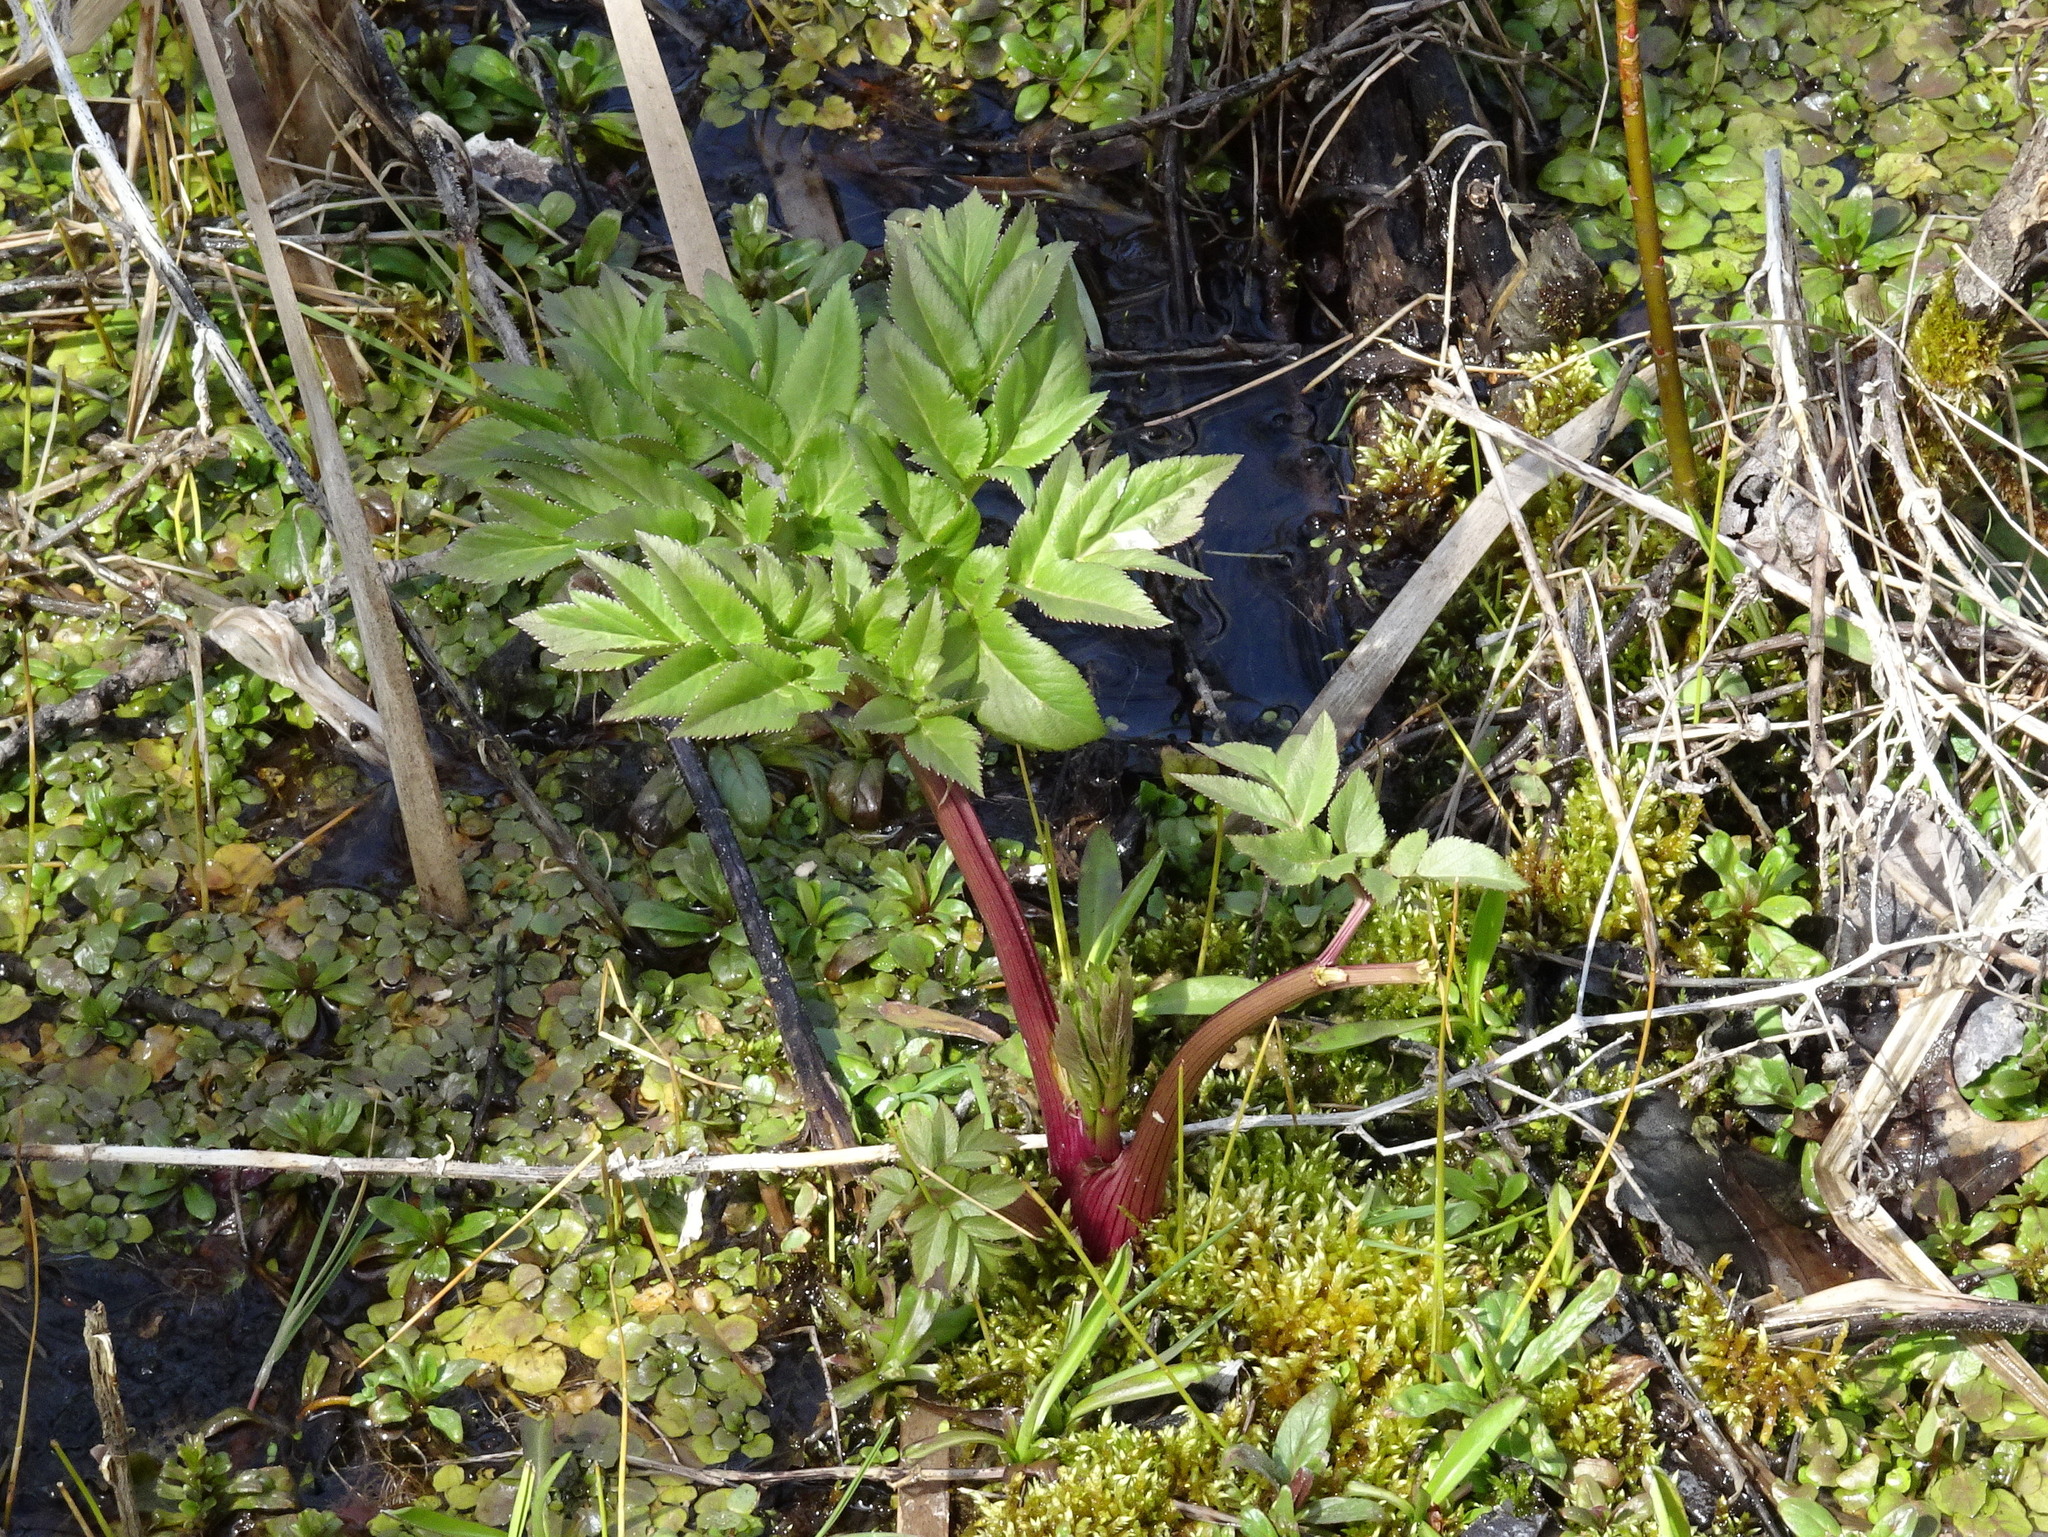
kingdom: Plantae
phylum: Tracheophyta
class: Magnoliopsida
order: Apiales
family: Apiaceae
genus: Angelica
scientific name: Angelica atropurpurea
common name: Great angelica
